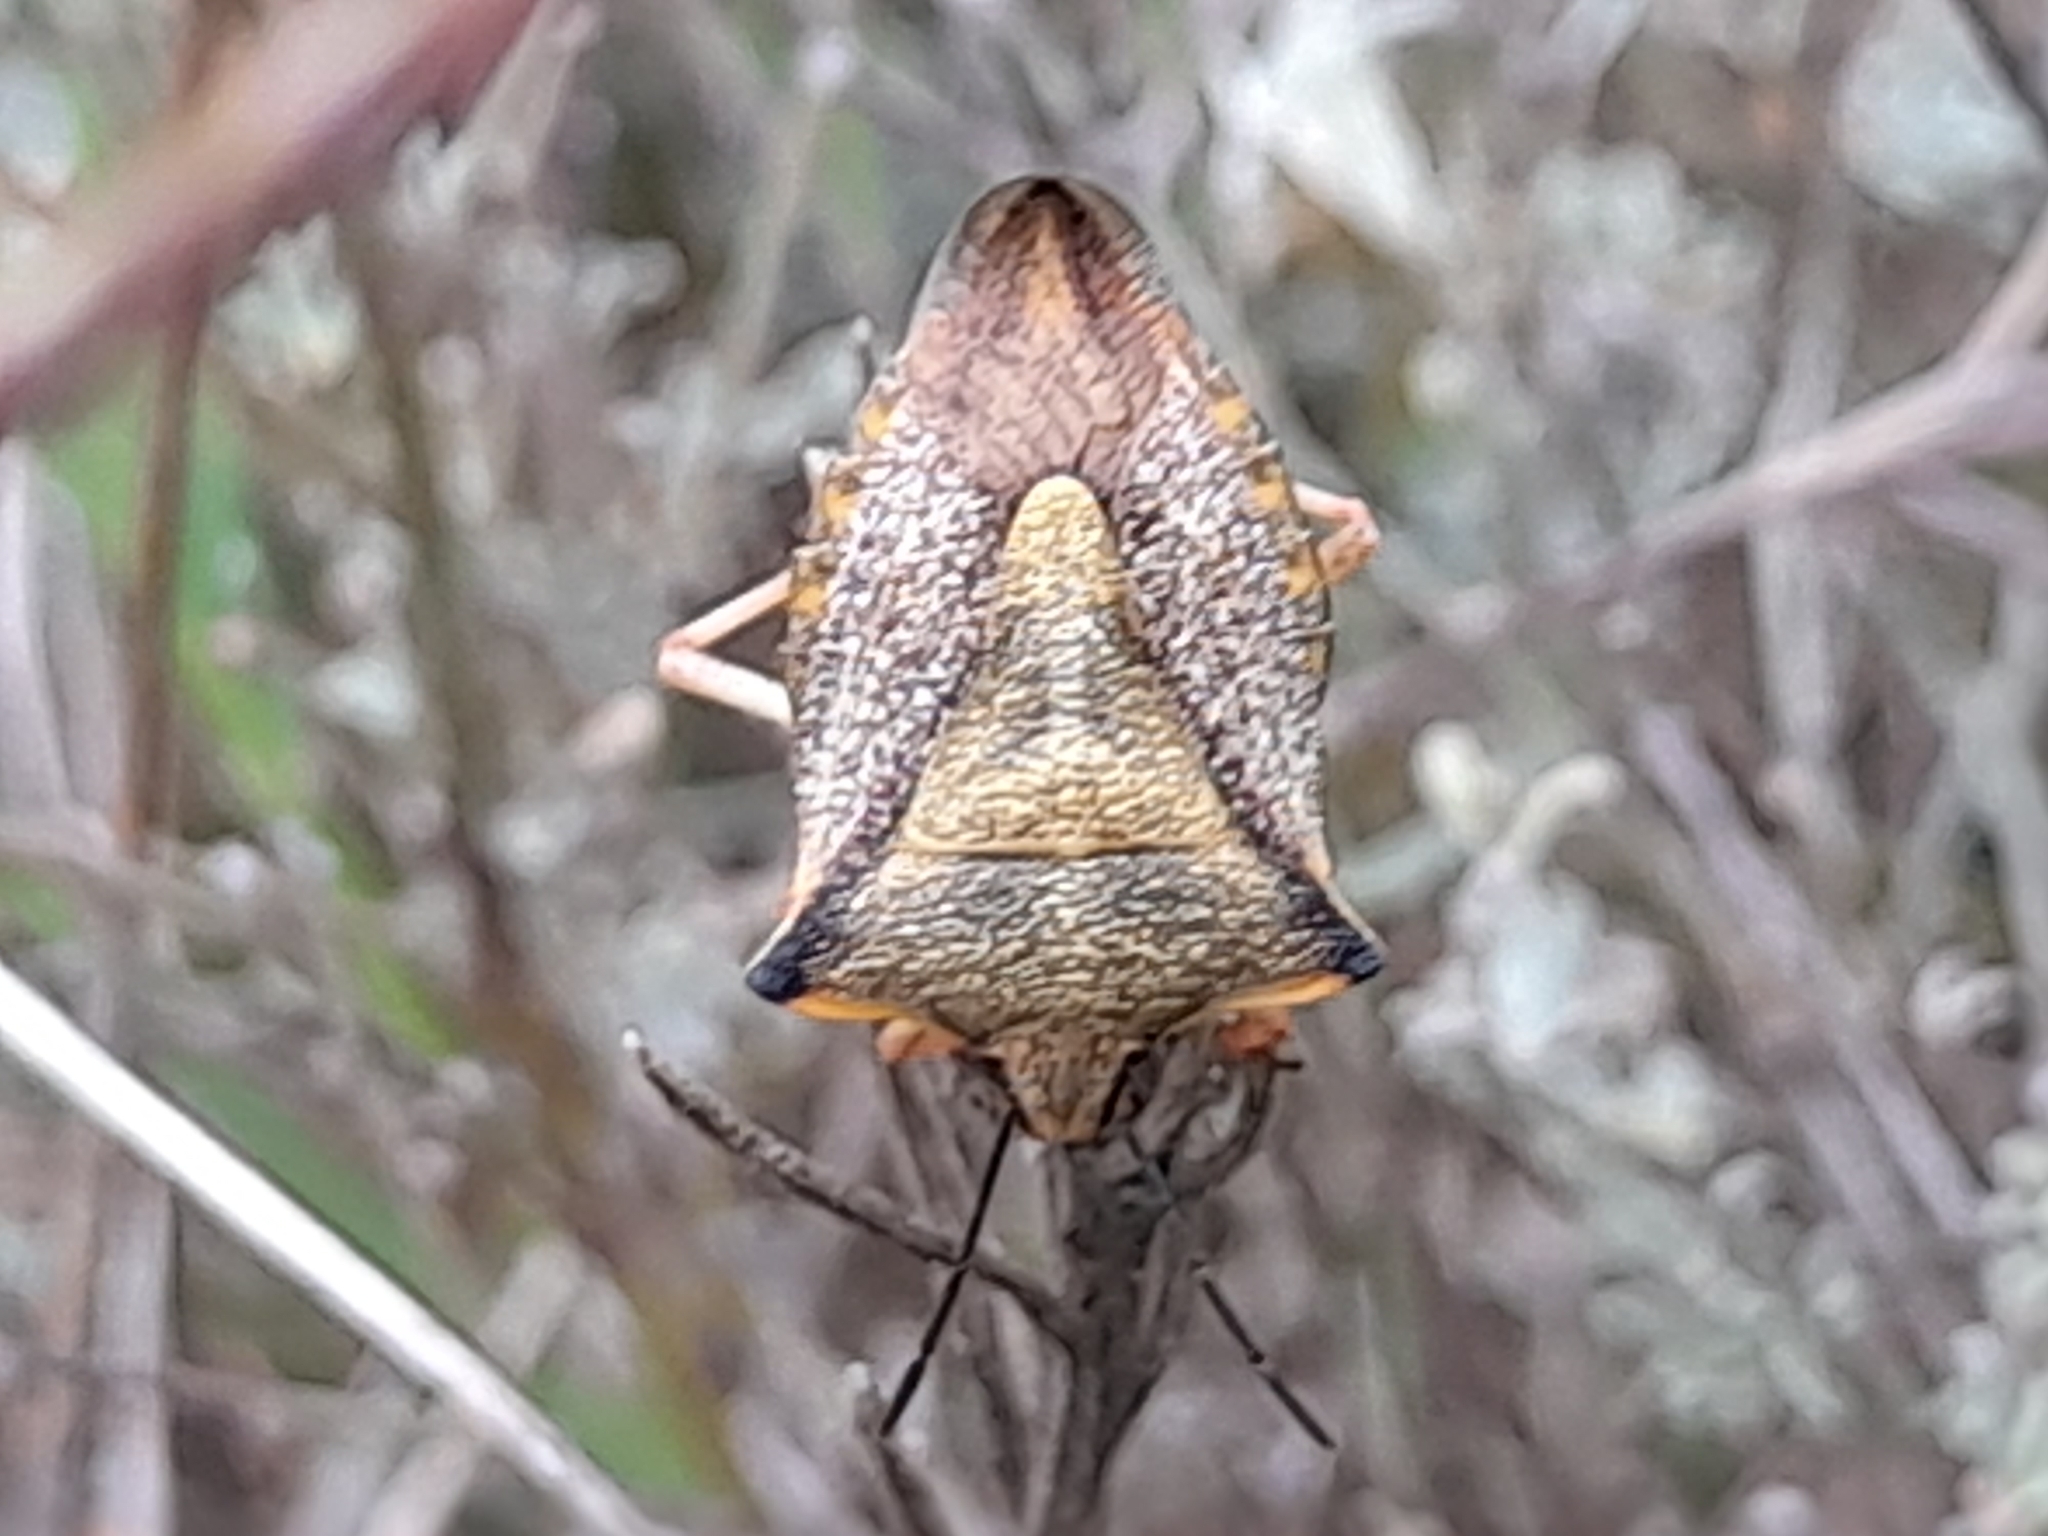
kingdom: Animalia
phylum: Arthropoda
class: Insecta
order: Hemiptera
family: Pentatomidae
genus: Carpocoris
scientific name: Carpocoris mediterraneus
